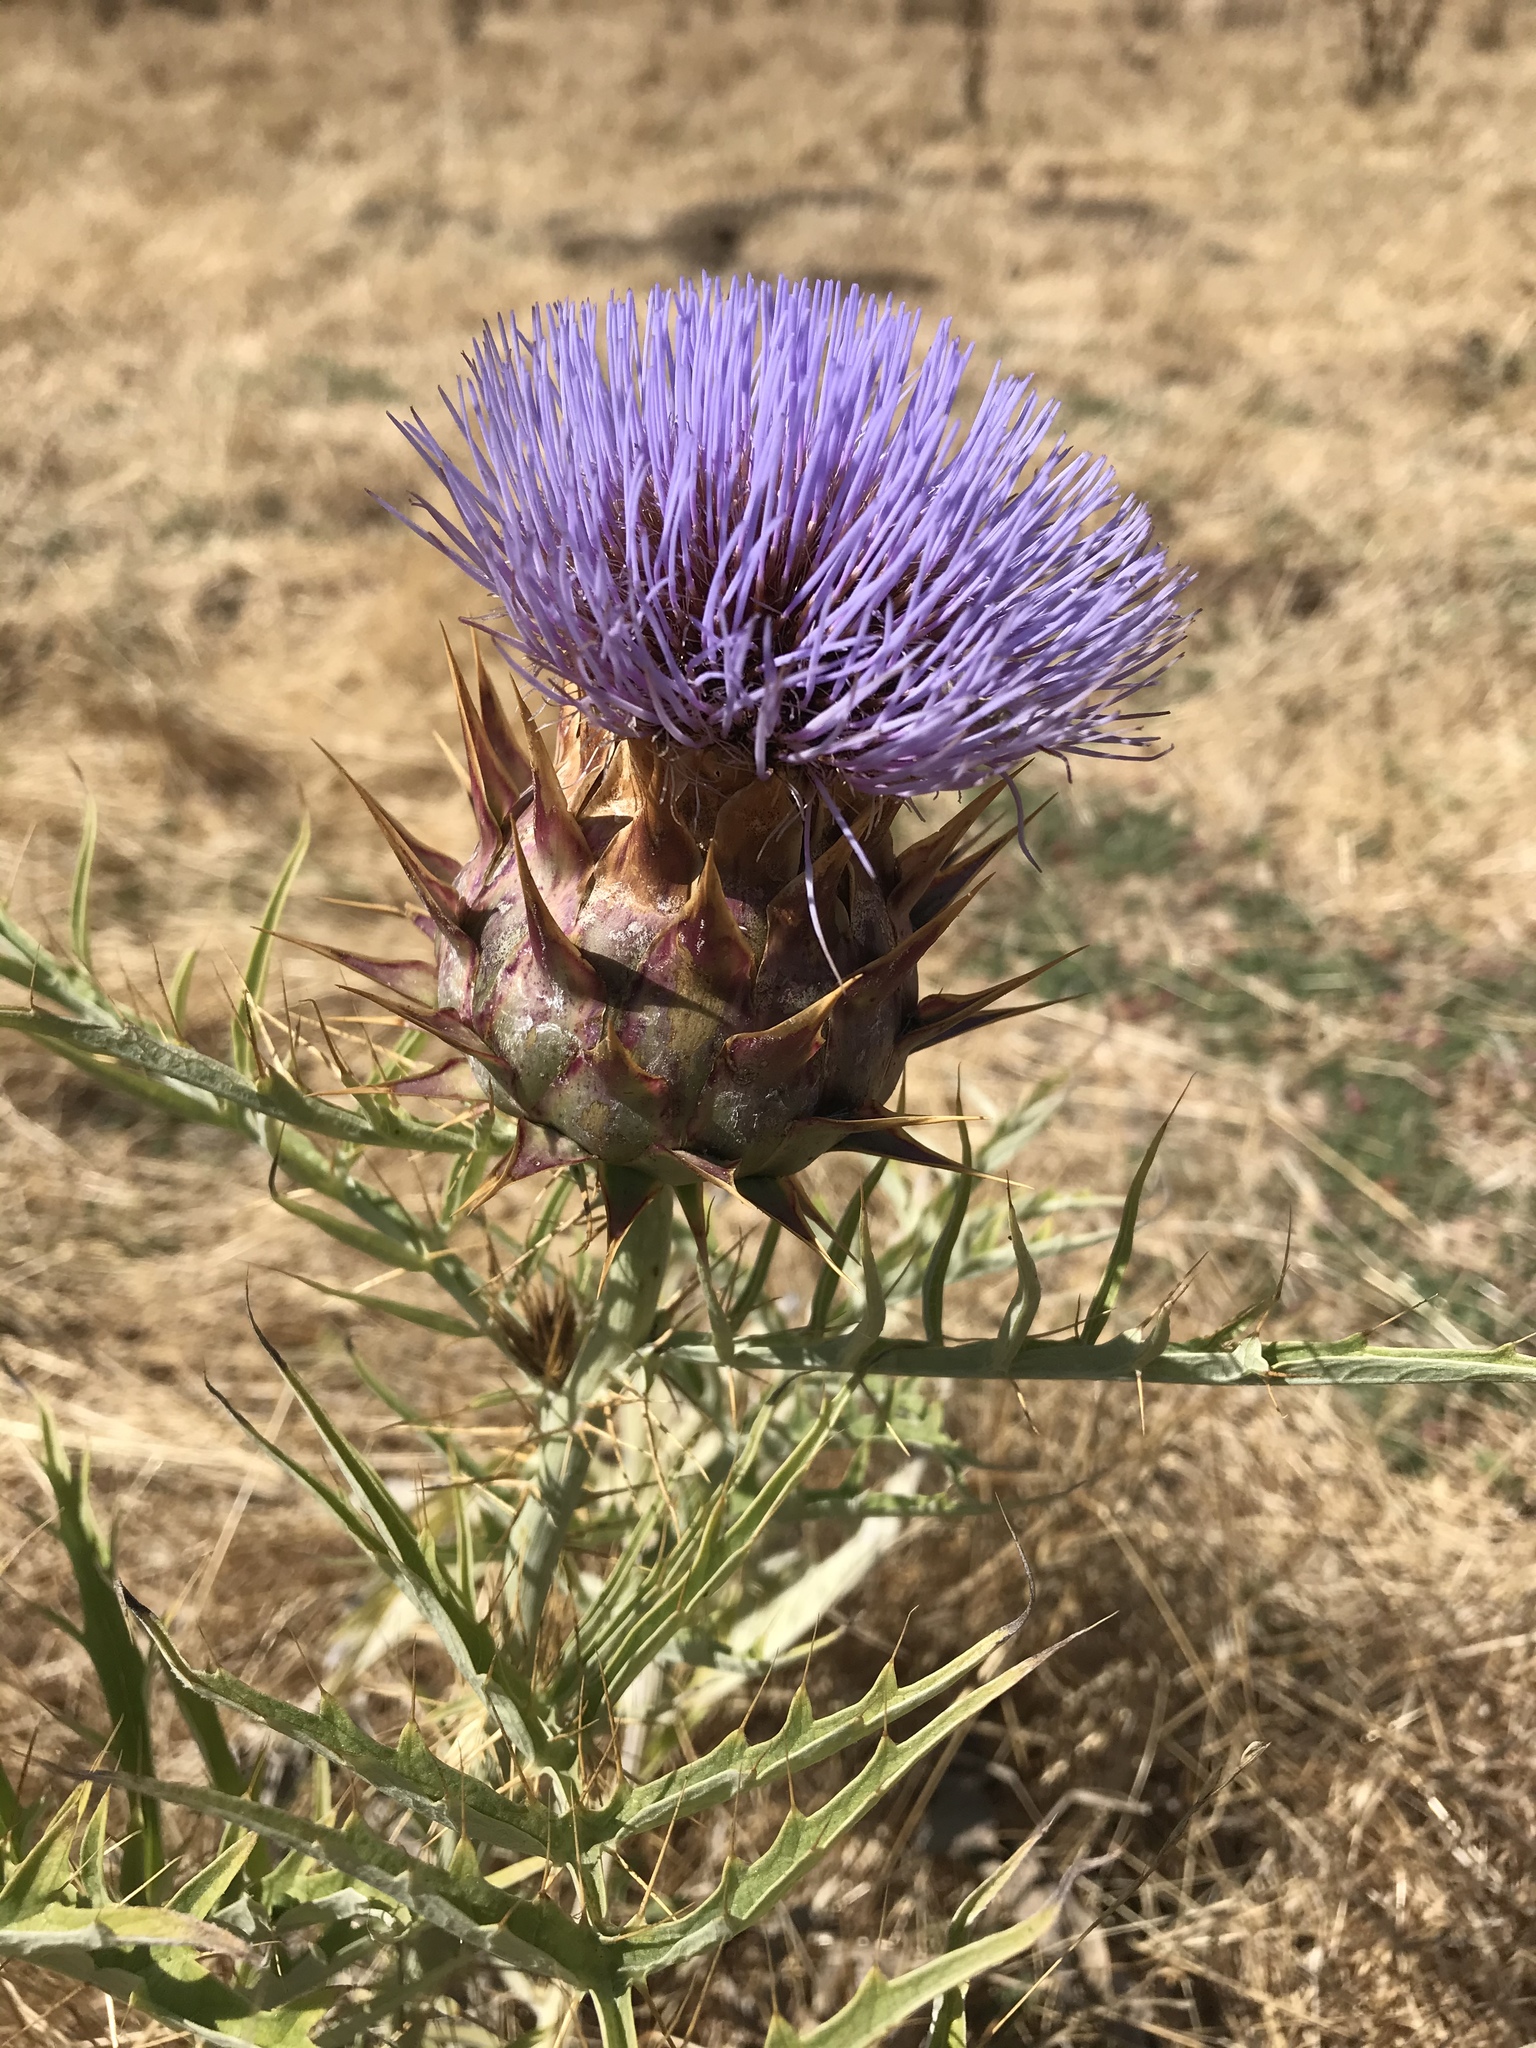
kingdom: Plantae
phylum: Tracheophyta
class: Magnoliopsida
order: Asterales
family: Asteraceae
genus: Cynara
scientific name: Cynara cardunculus
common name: Globe artichoke
